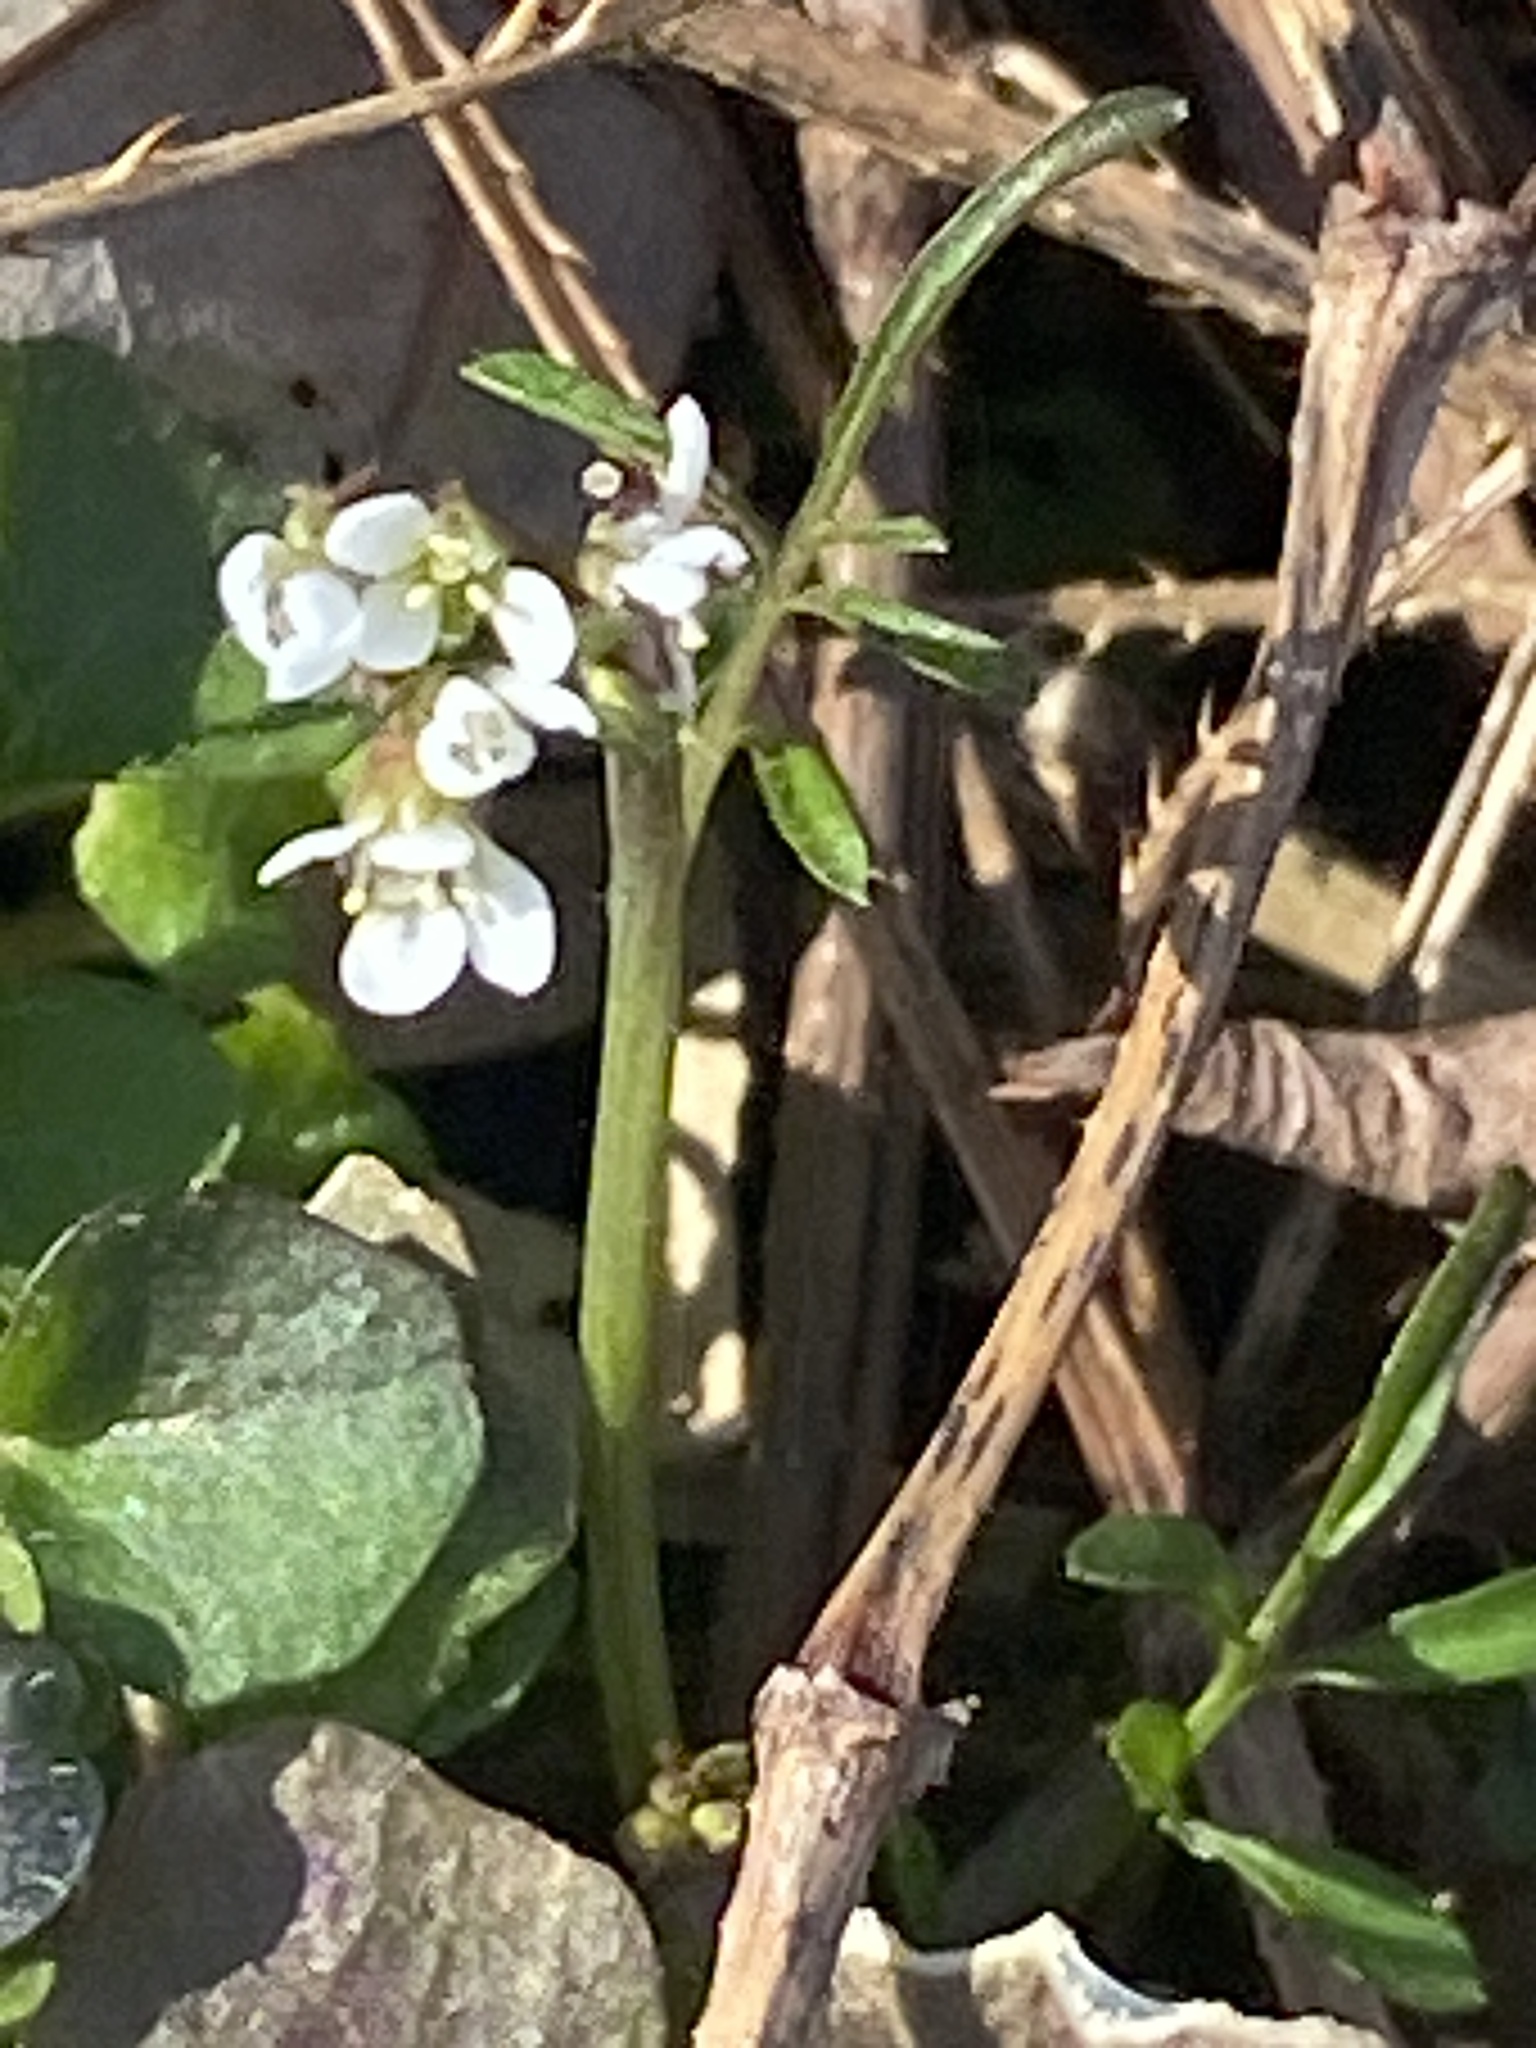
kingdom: Plantae
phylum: Tracheophyta
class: Magnoliopsida
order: Brassicales
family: Brassicaceae
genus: Cardamine
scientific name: Cardamine hirsuta
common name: Hairy bittercress
